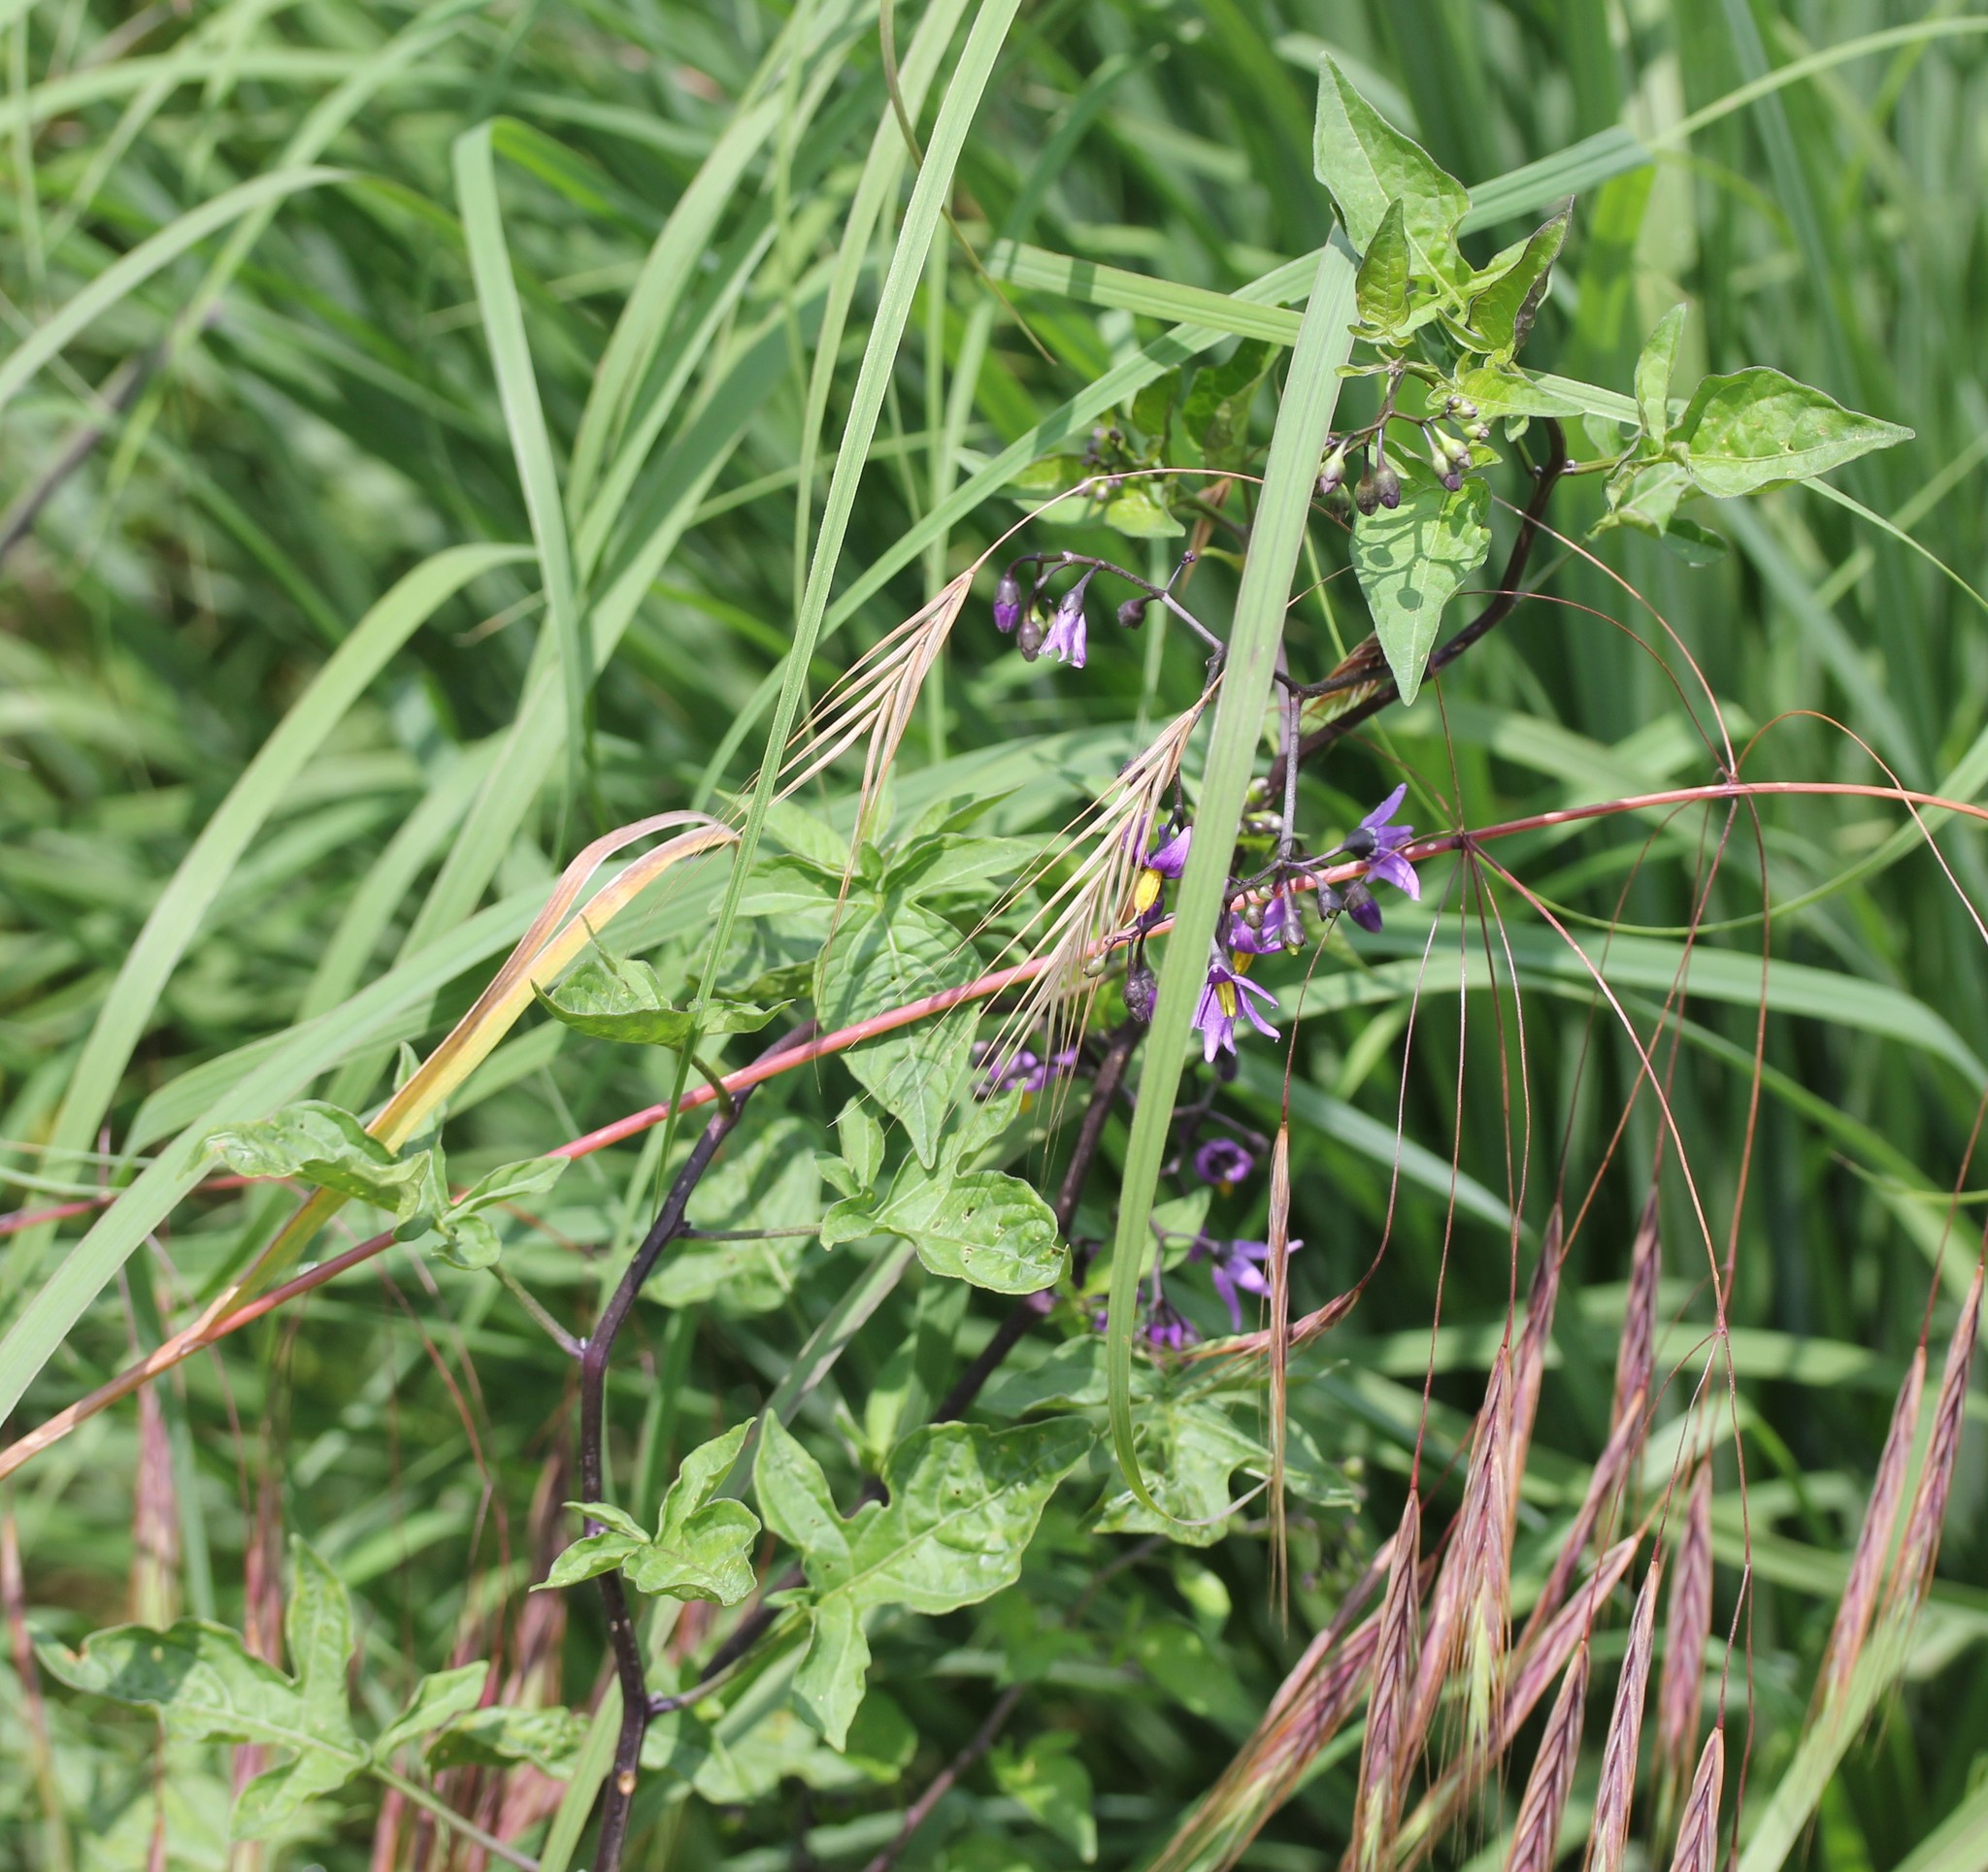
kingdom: Plantae
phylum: Tracheophyta
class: Magnoliopsida
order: Solanales
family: Solanaceae
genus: Solanum
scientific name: Solanum dulcamara
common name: Climbing nightshade
